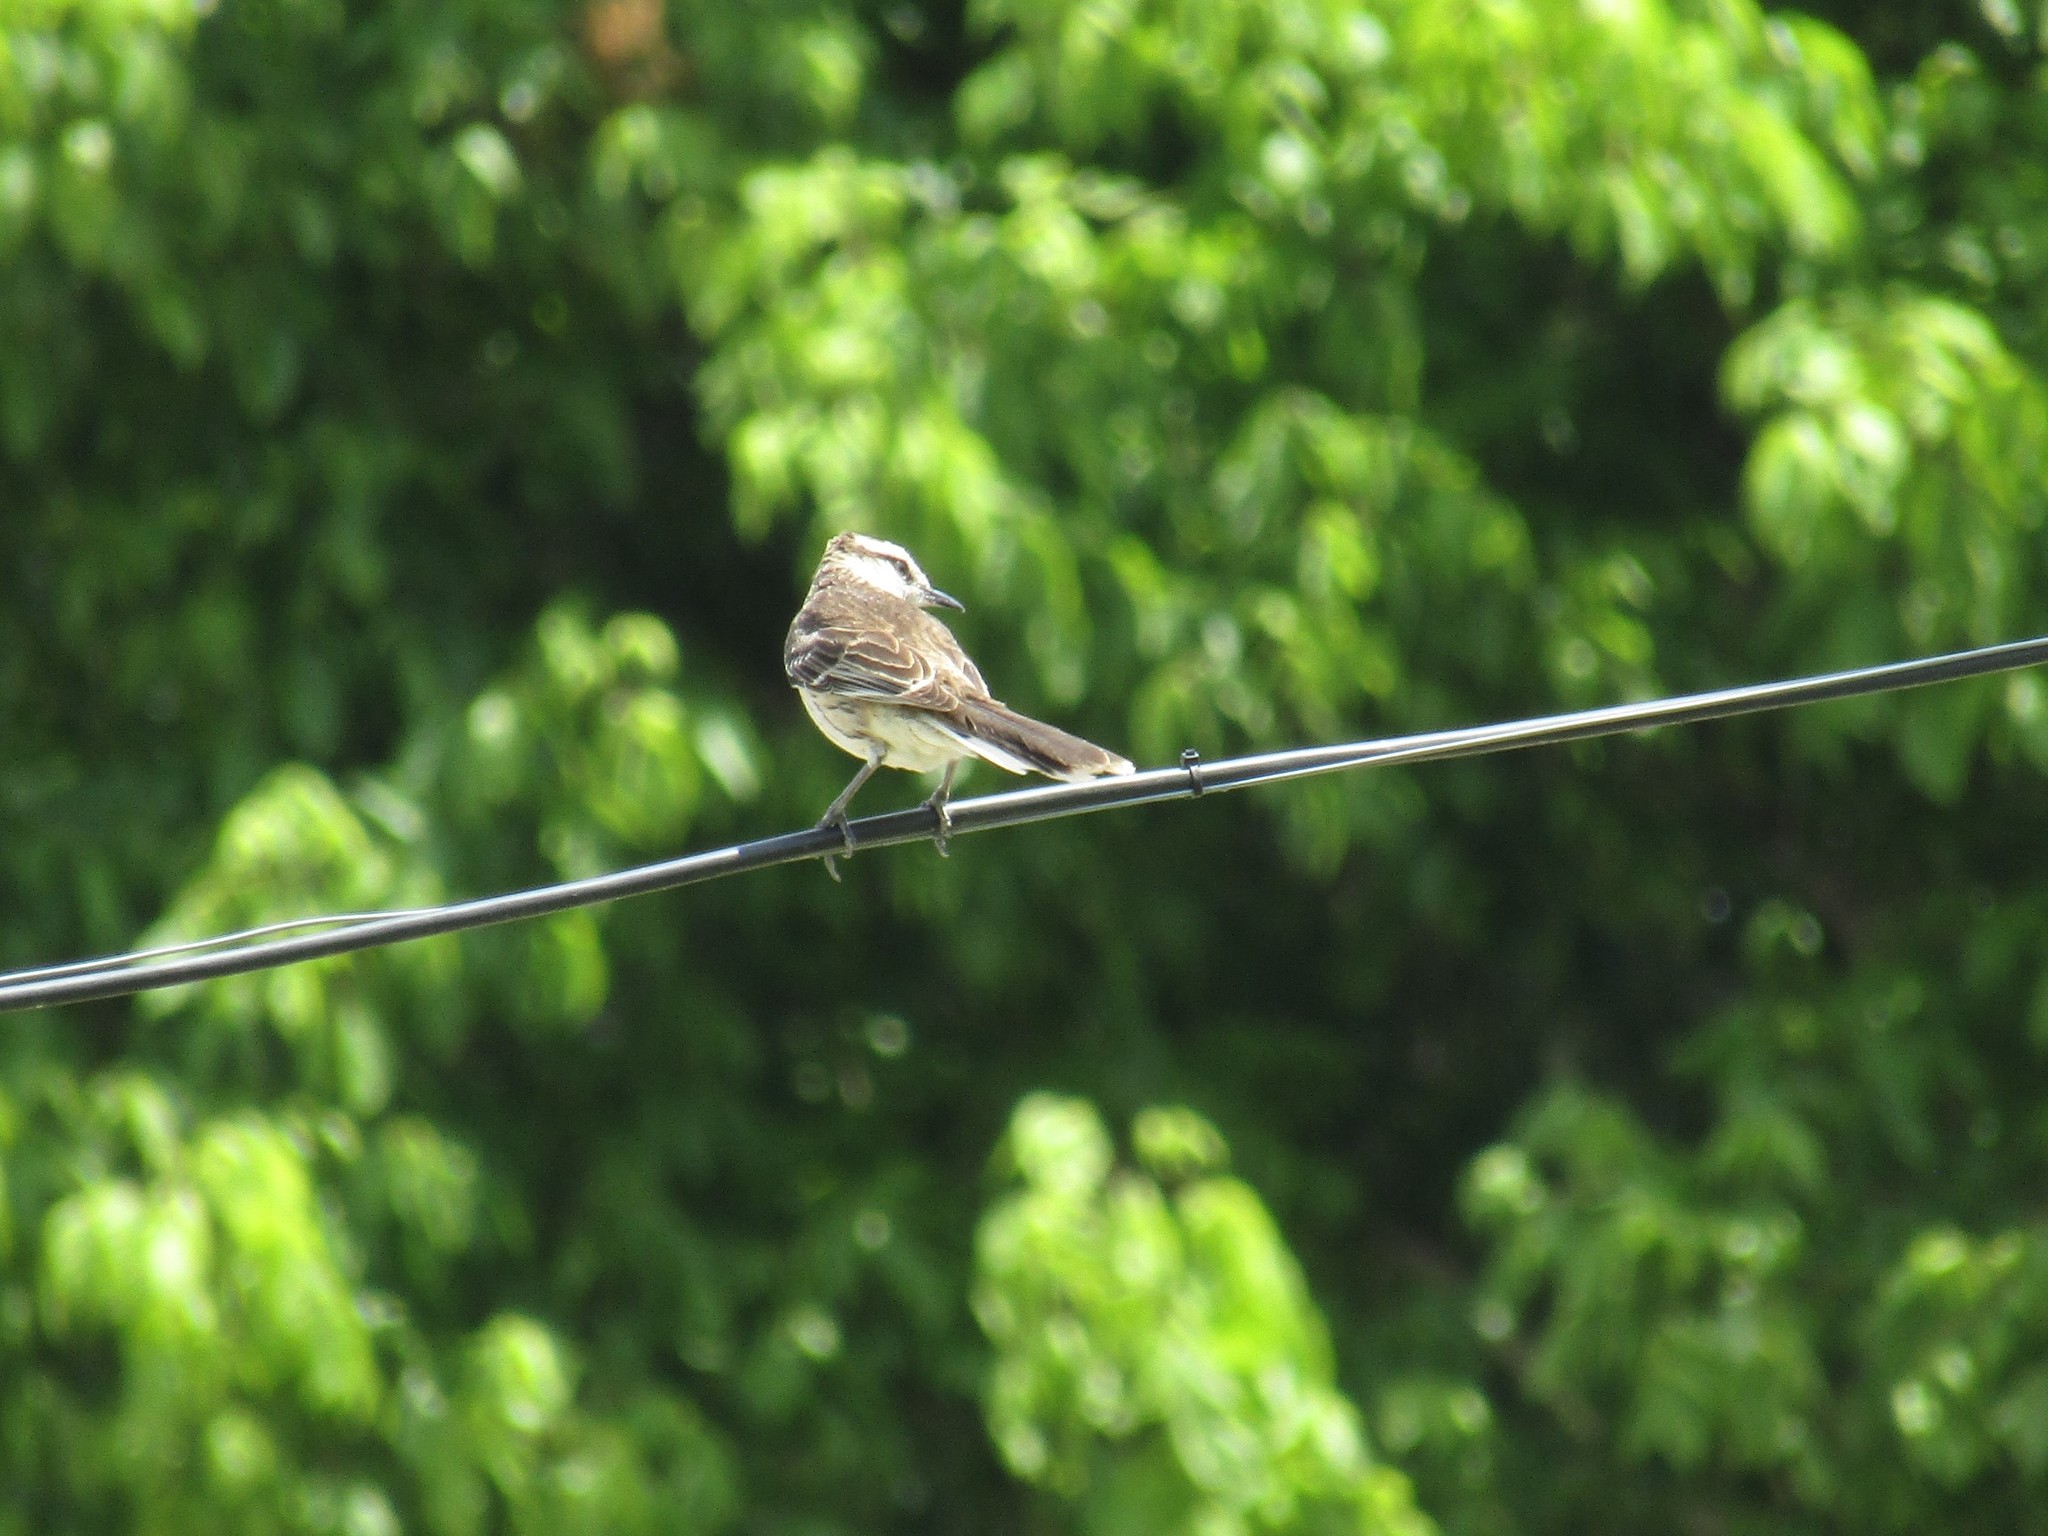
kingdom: Animalia
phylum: Chordata
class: Aves
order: Passeriformes
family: Mimidae
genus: Mimus
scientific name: Mimus saturninus
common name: Chalk-browed mockingbird
